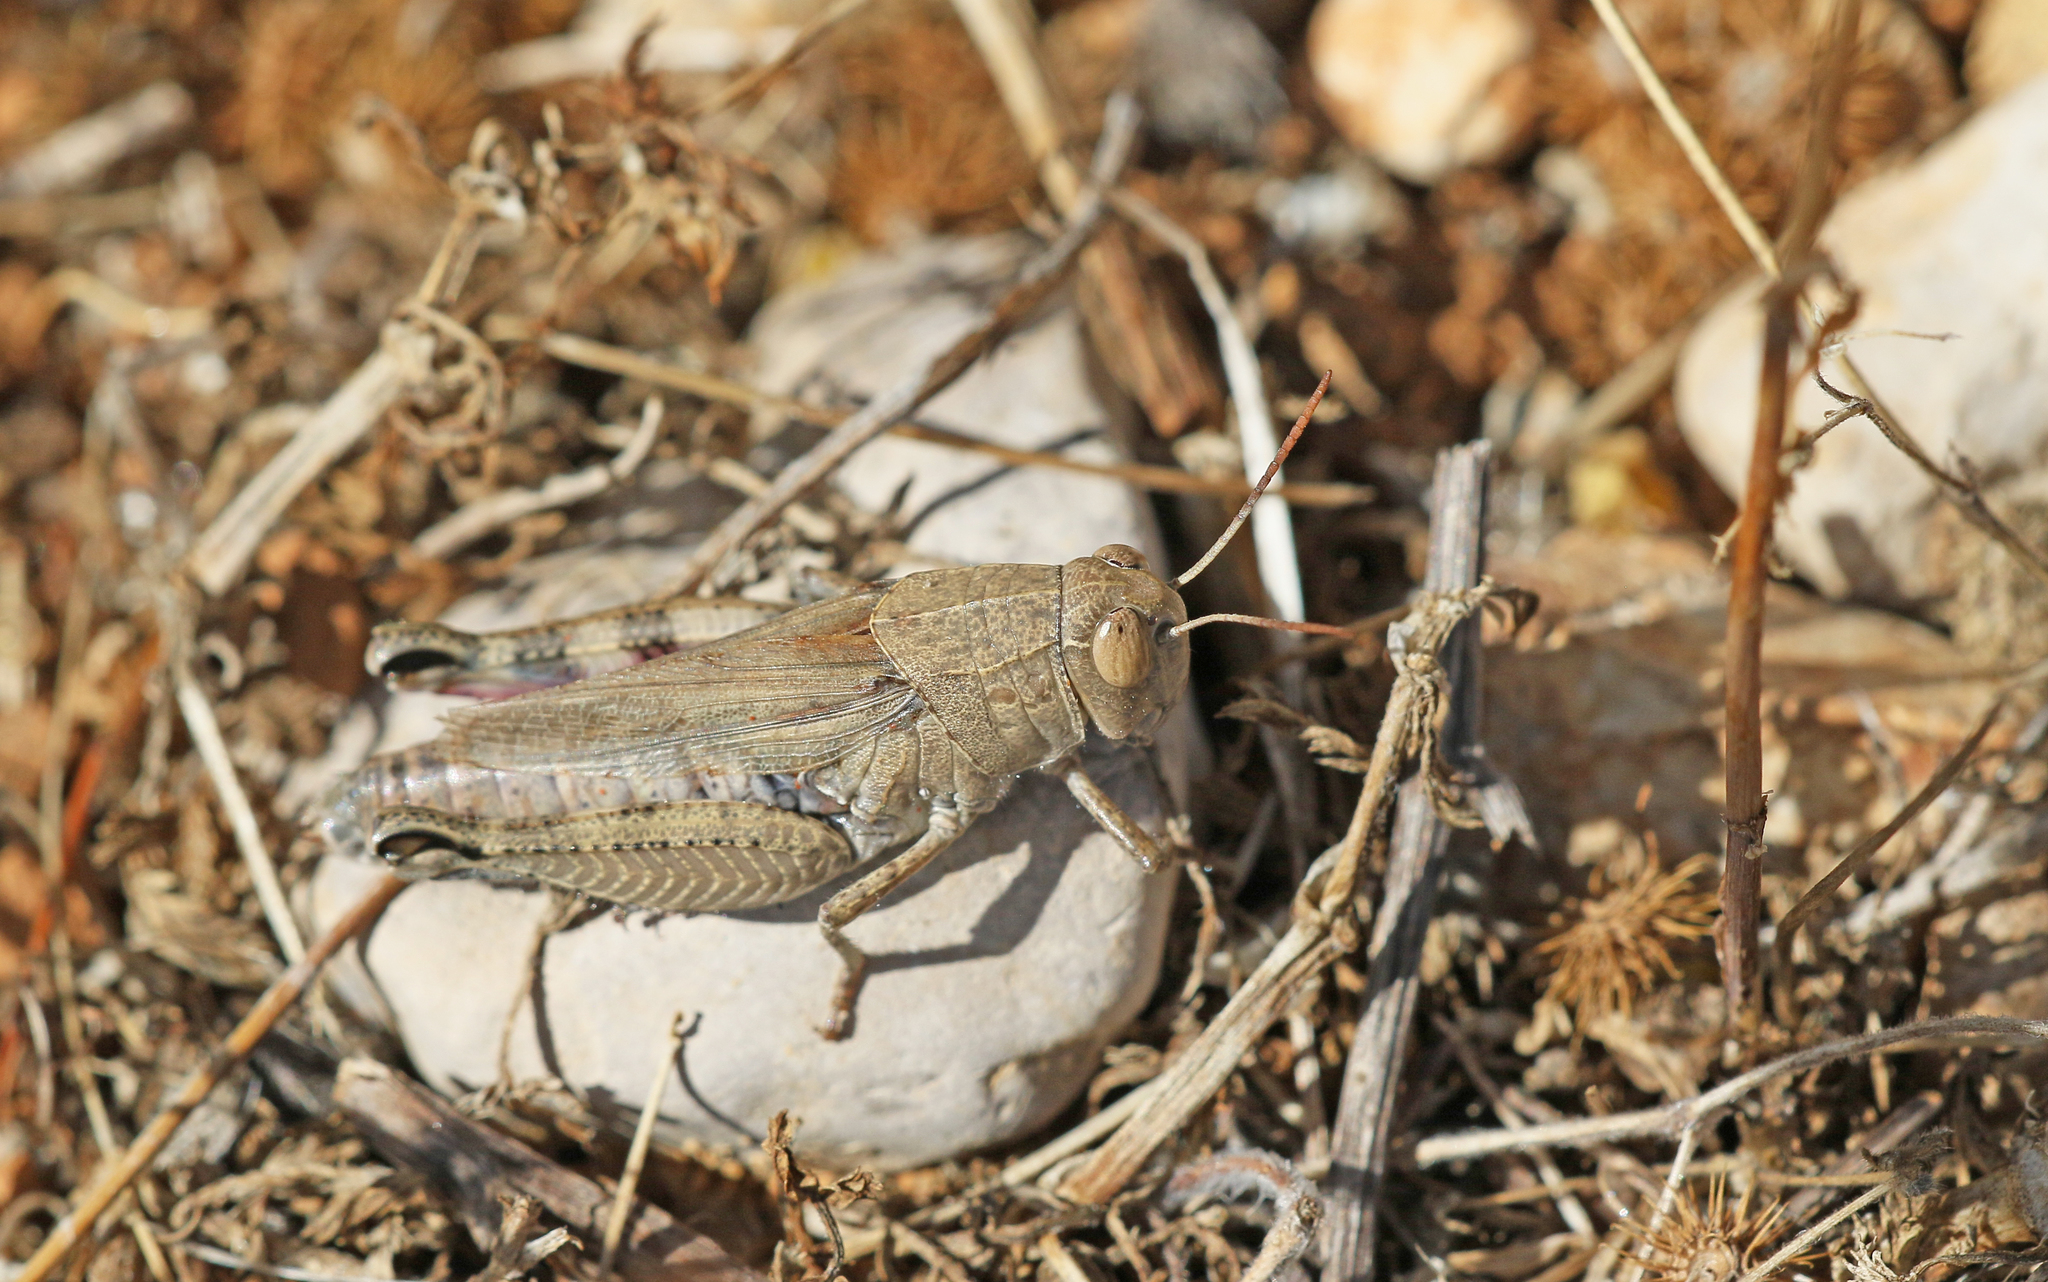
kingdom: Animalia
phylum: Arthropoda
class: Insecta
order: Orthoptera
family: Acrididae
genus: Calliptamus
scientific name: Calliptamus wattenwylianus
